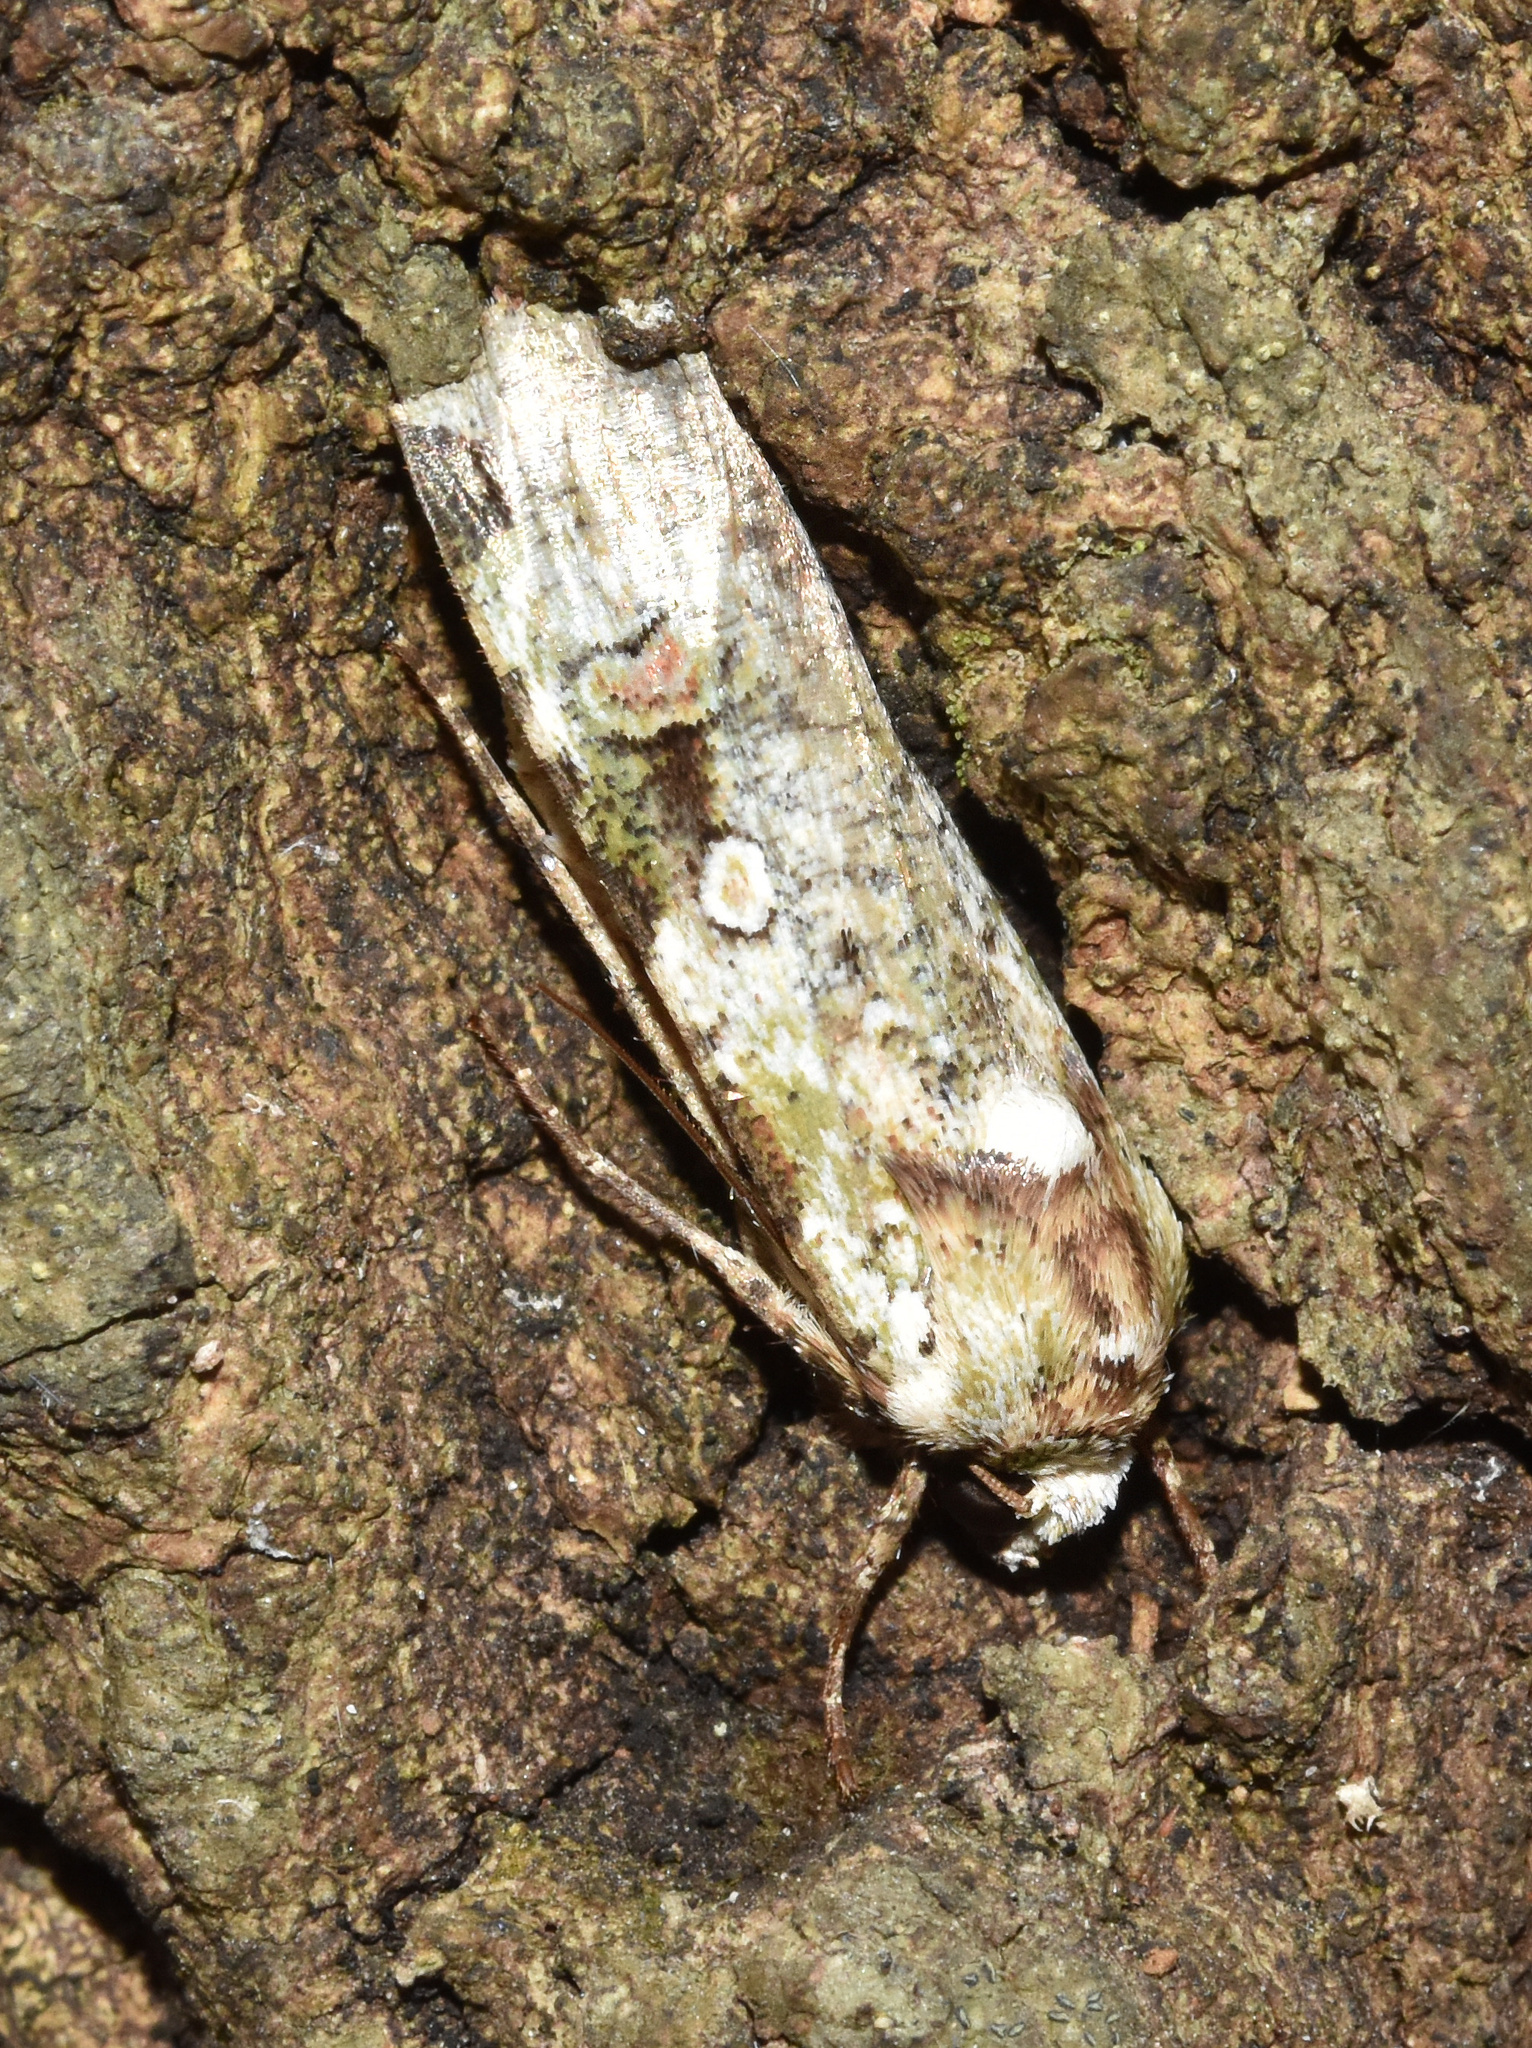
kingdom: Animalia
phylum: Arthropoda
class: Insecta
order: Lepidoptera
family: Noctuidae
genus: Mentaxya
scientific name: Mentaxya albifrons
